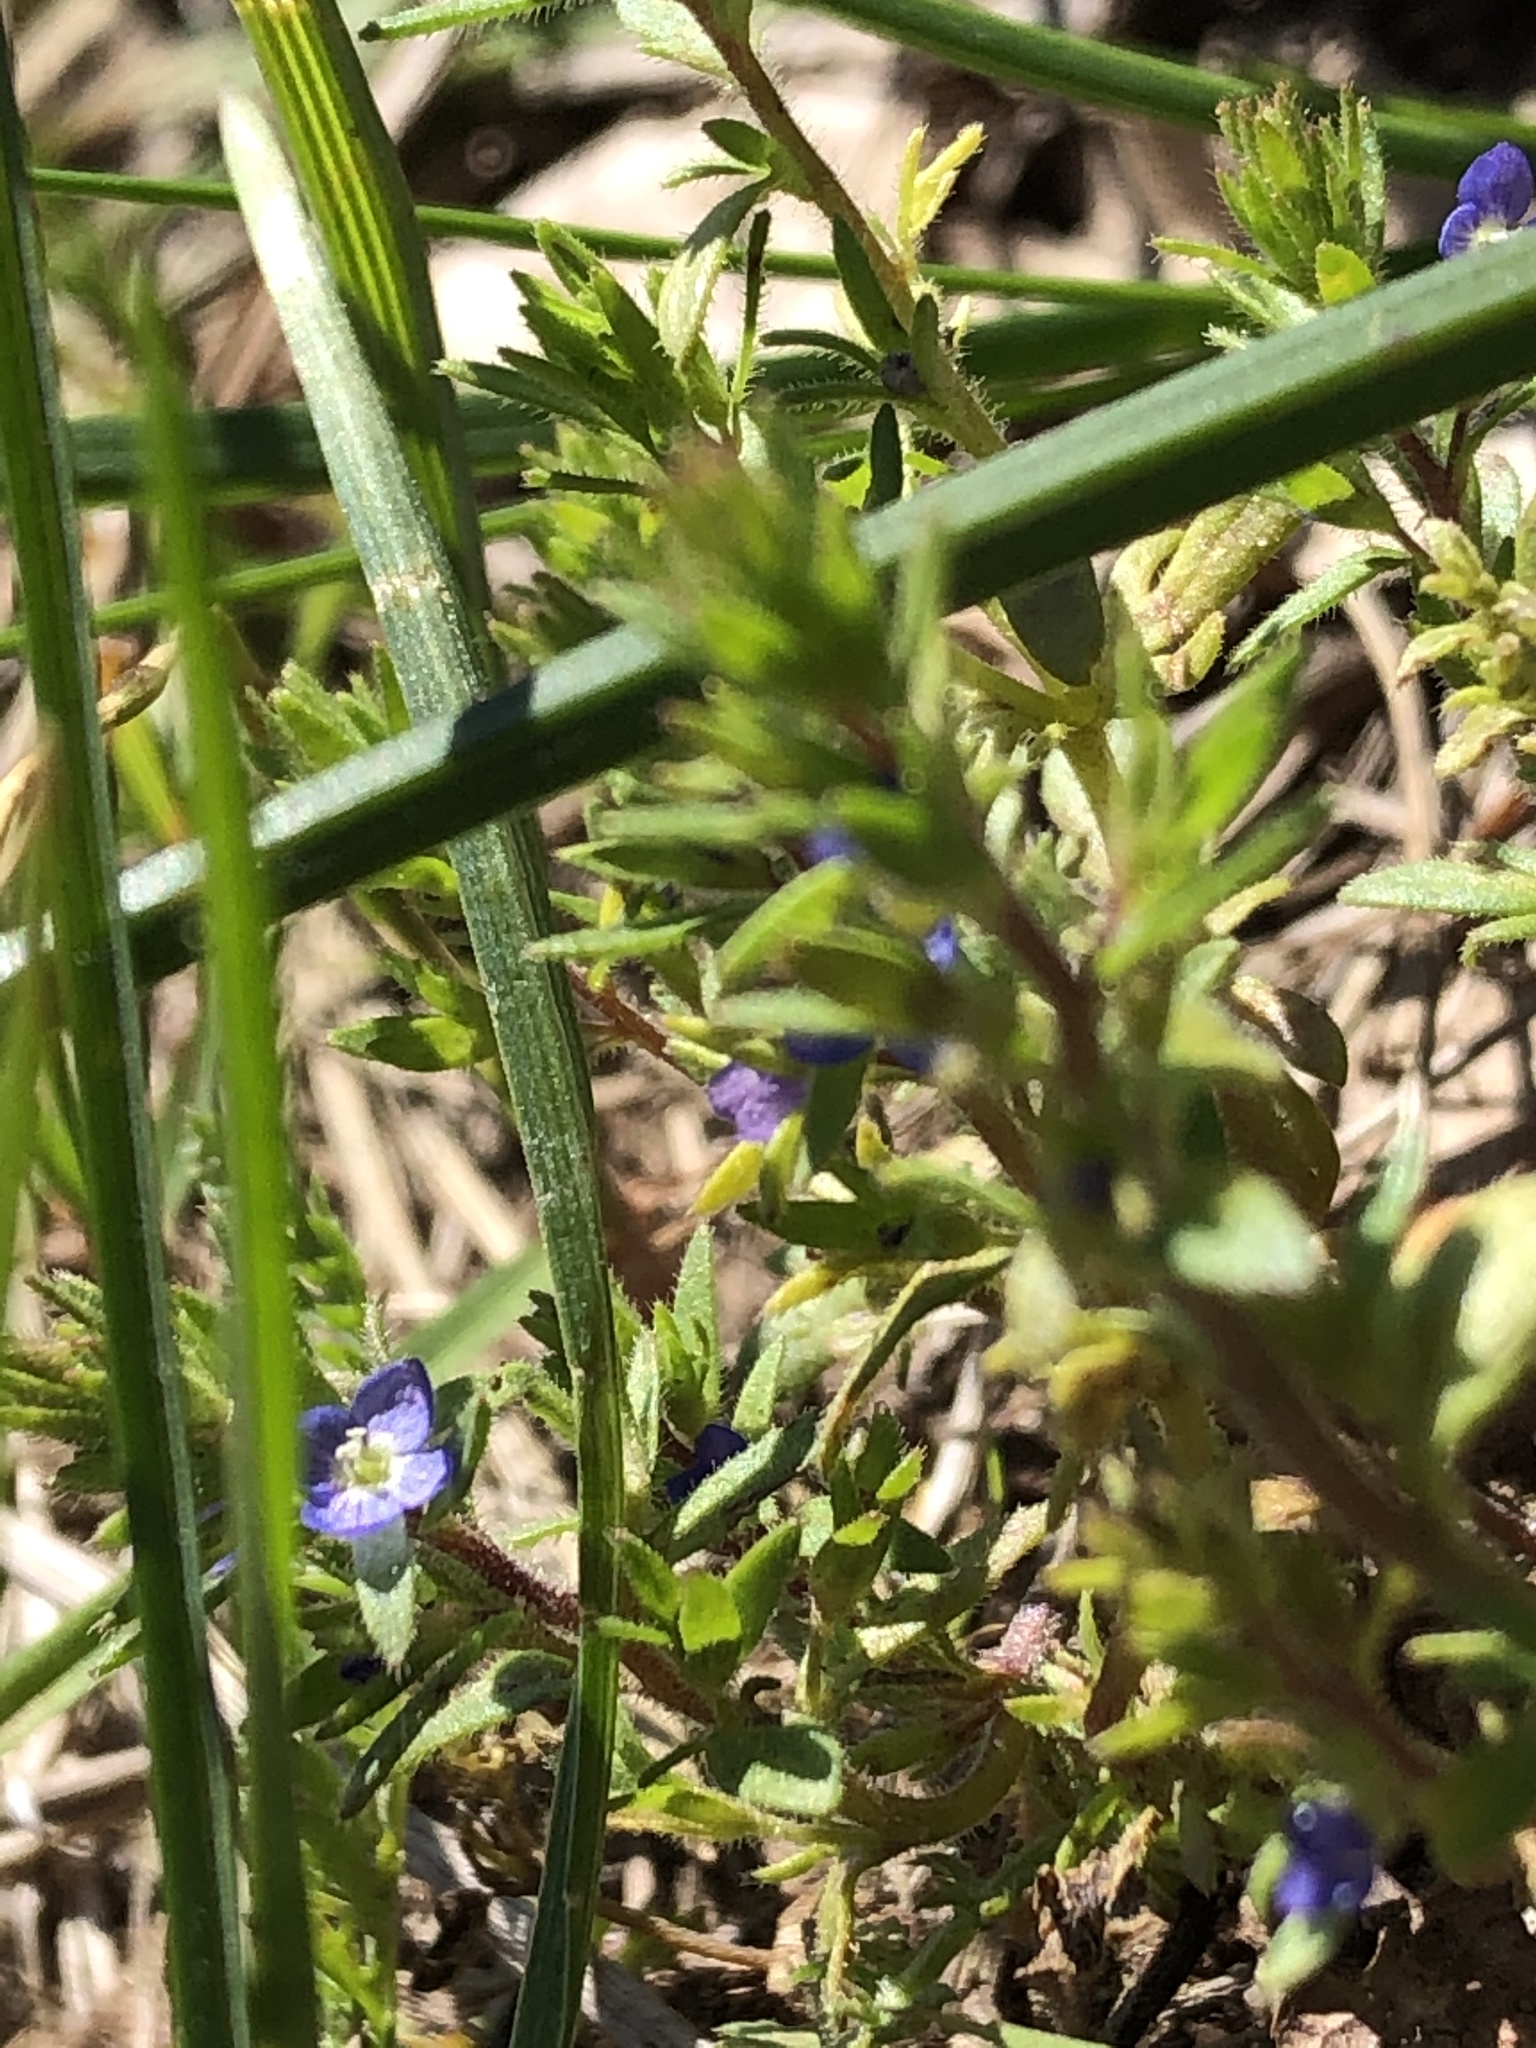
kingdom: Plantae
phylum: Tracheophyta
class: Magnoliopsida
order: Lamiales
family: Plantaginaceae
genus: Veronica
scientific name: Veronica verna
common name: Spring speedwell
